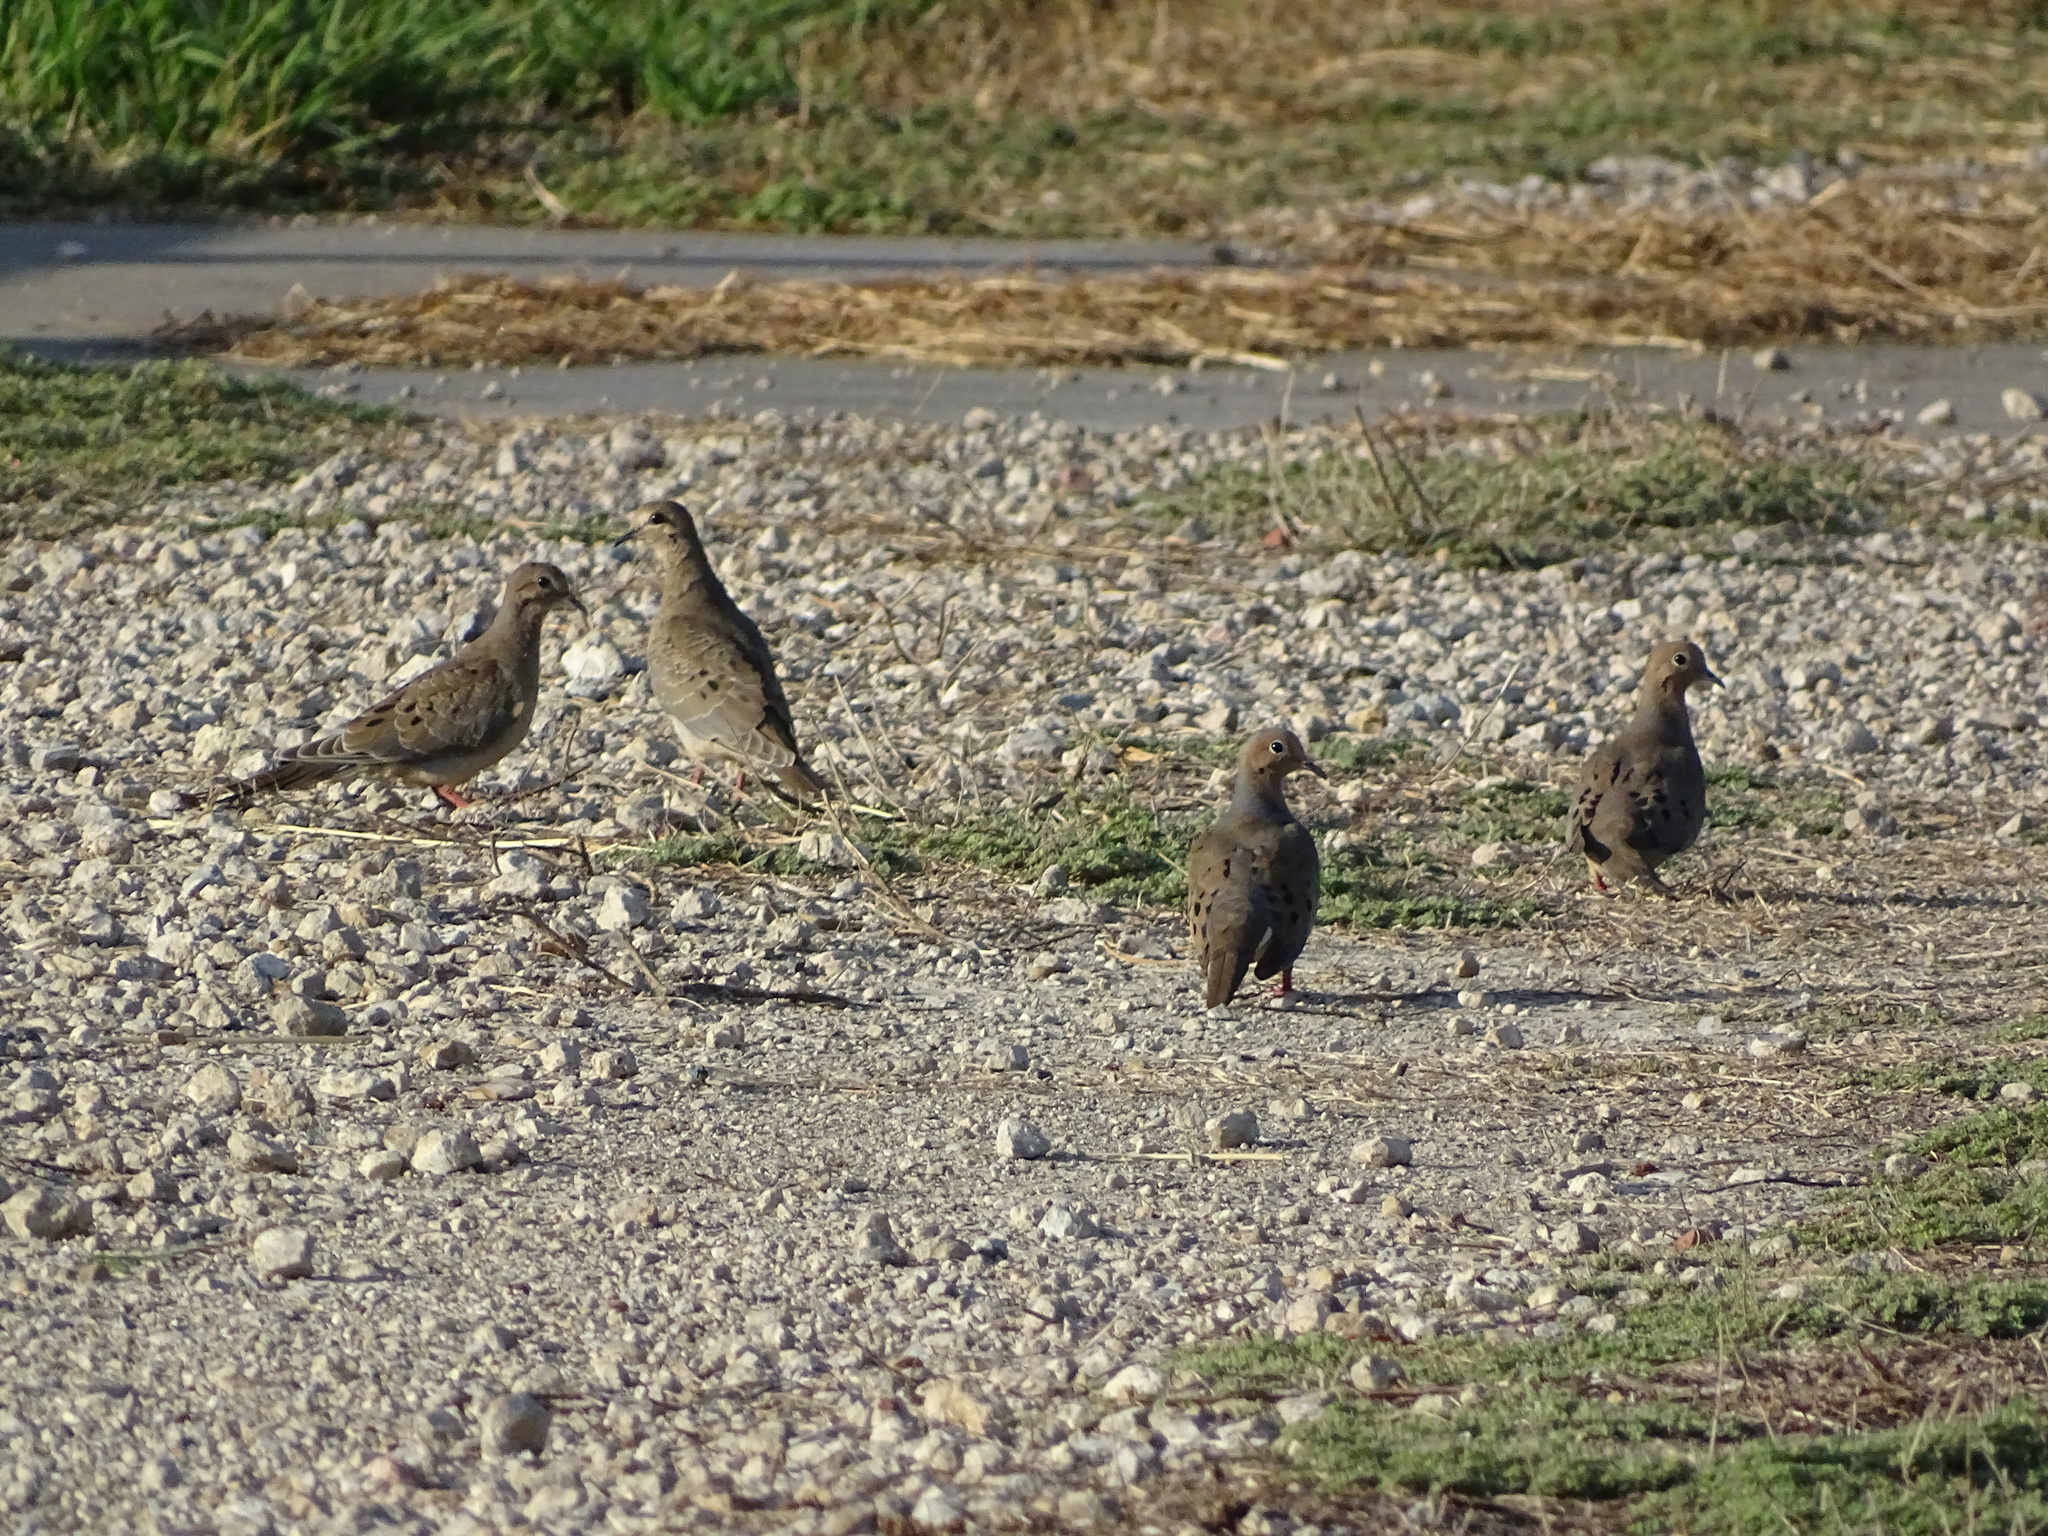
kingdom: Animalia
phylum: Chordata
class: Aves
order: Columbiformes
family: Columbidae
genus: Zenaida
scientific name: Zenaida macroura
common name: Mourning dove
